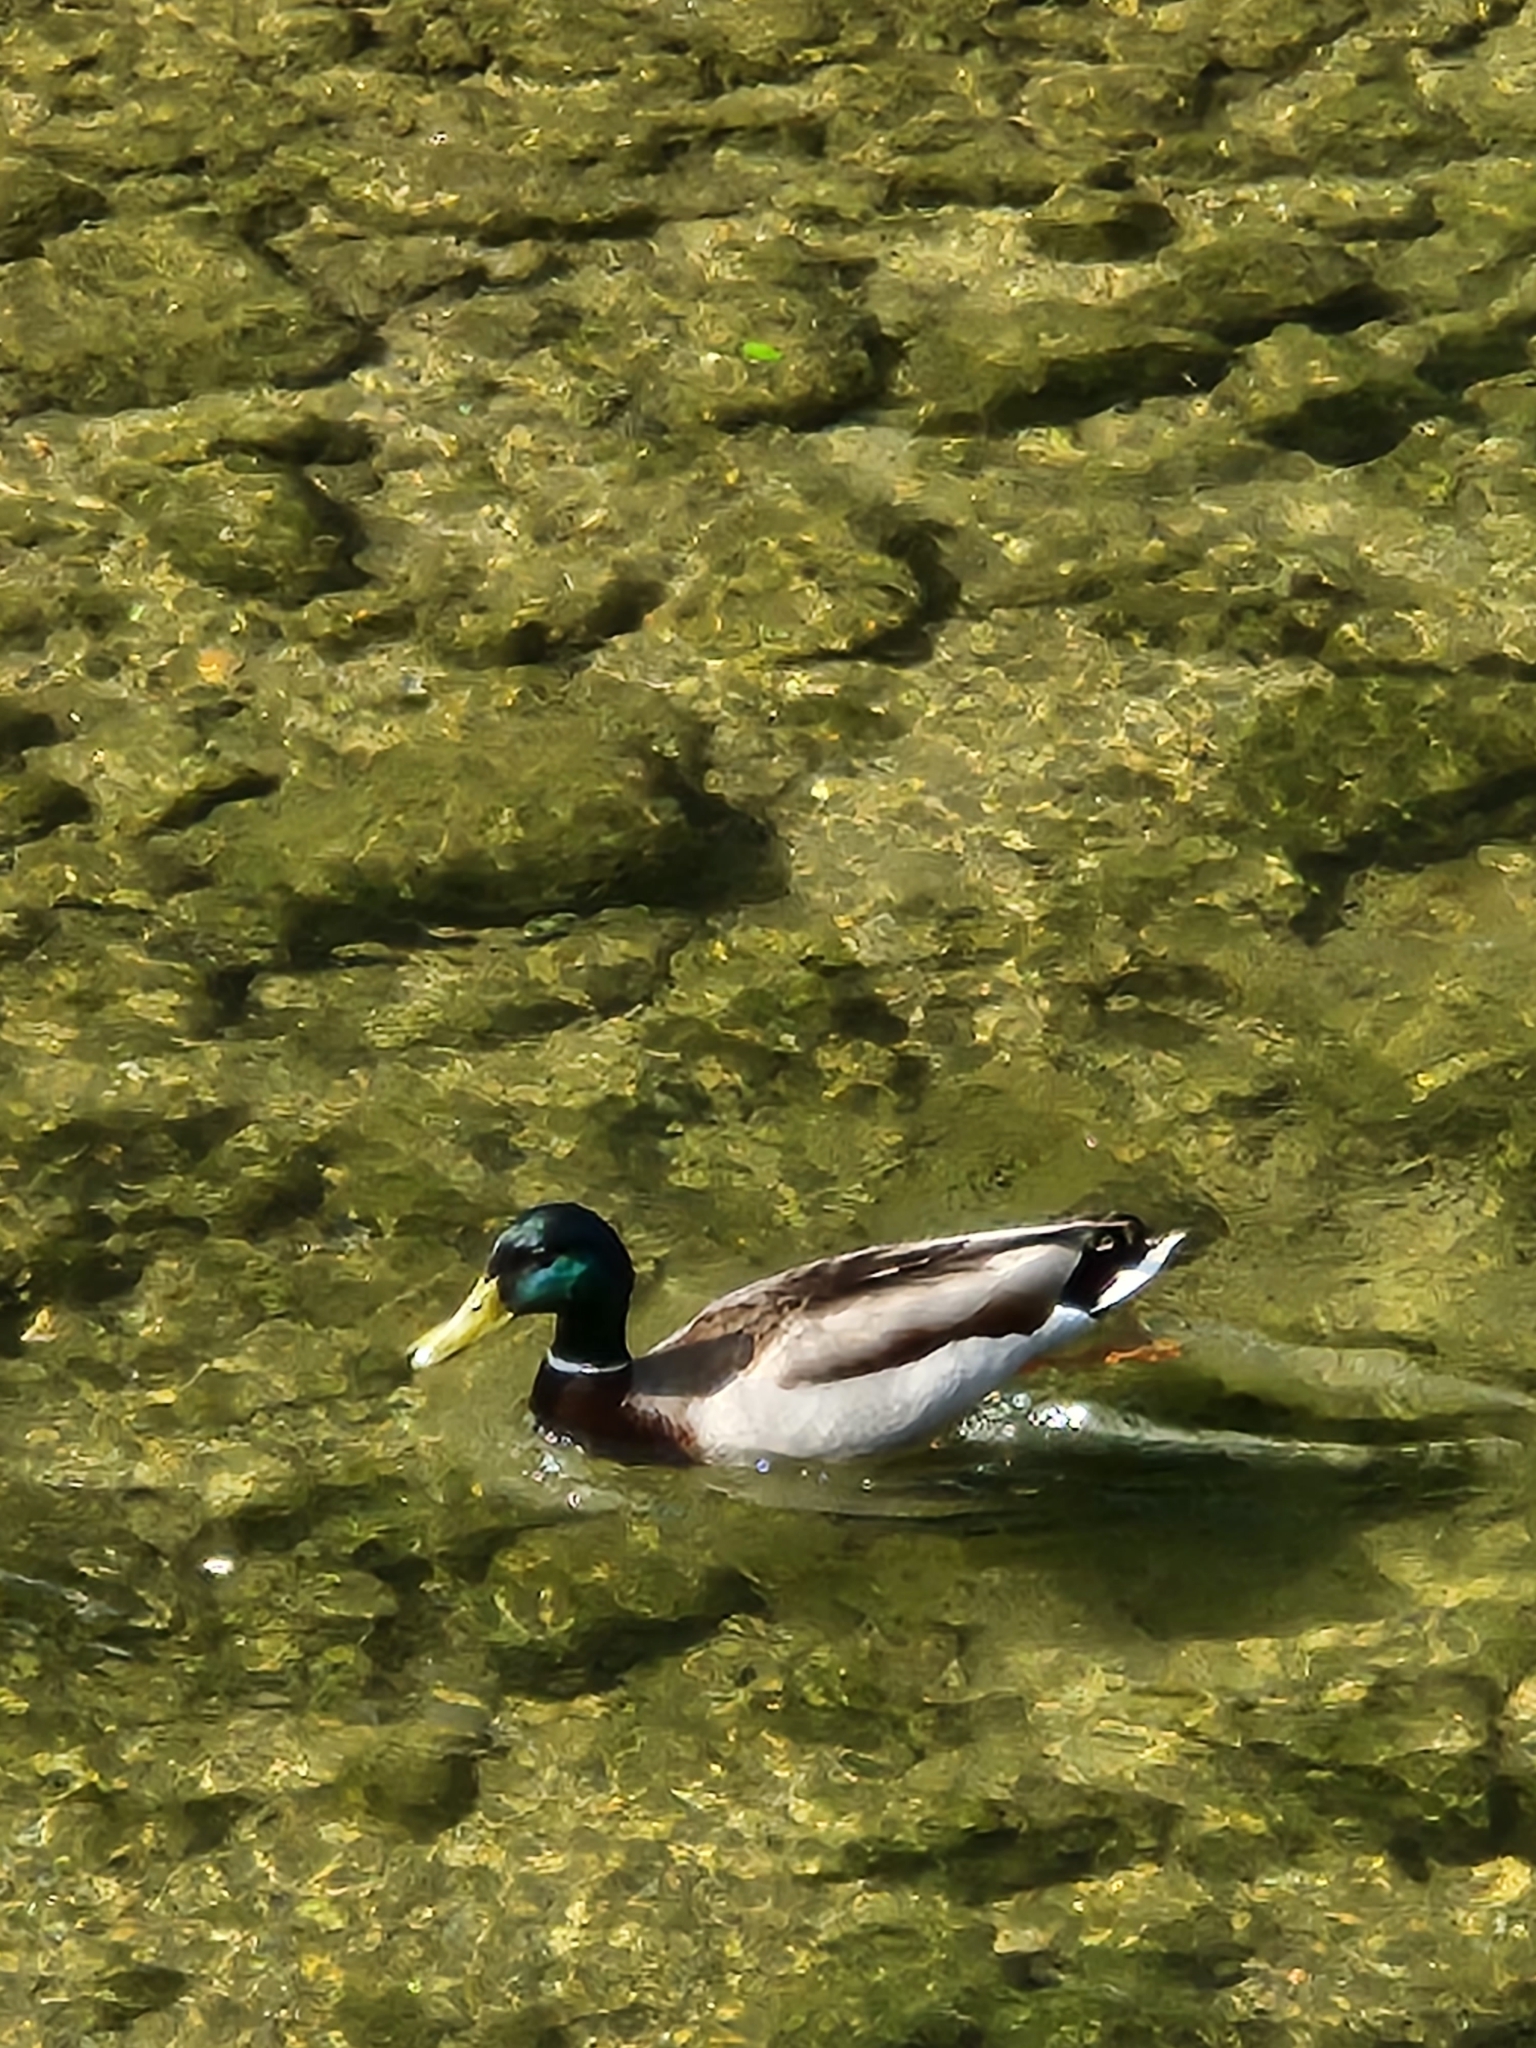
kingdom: Animalia
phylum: Chordata
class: Aves
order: Anseriformes
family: Anatidae
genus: Anas
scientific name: Anas platyrhynchos
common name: Mallard
